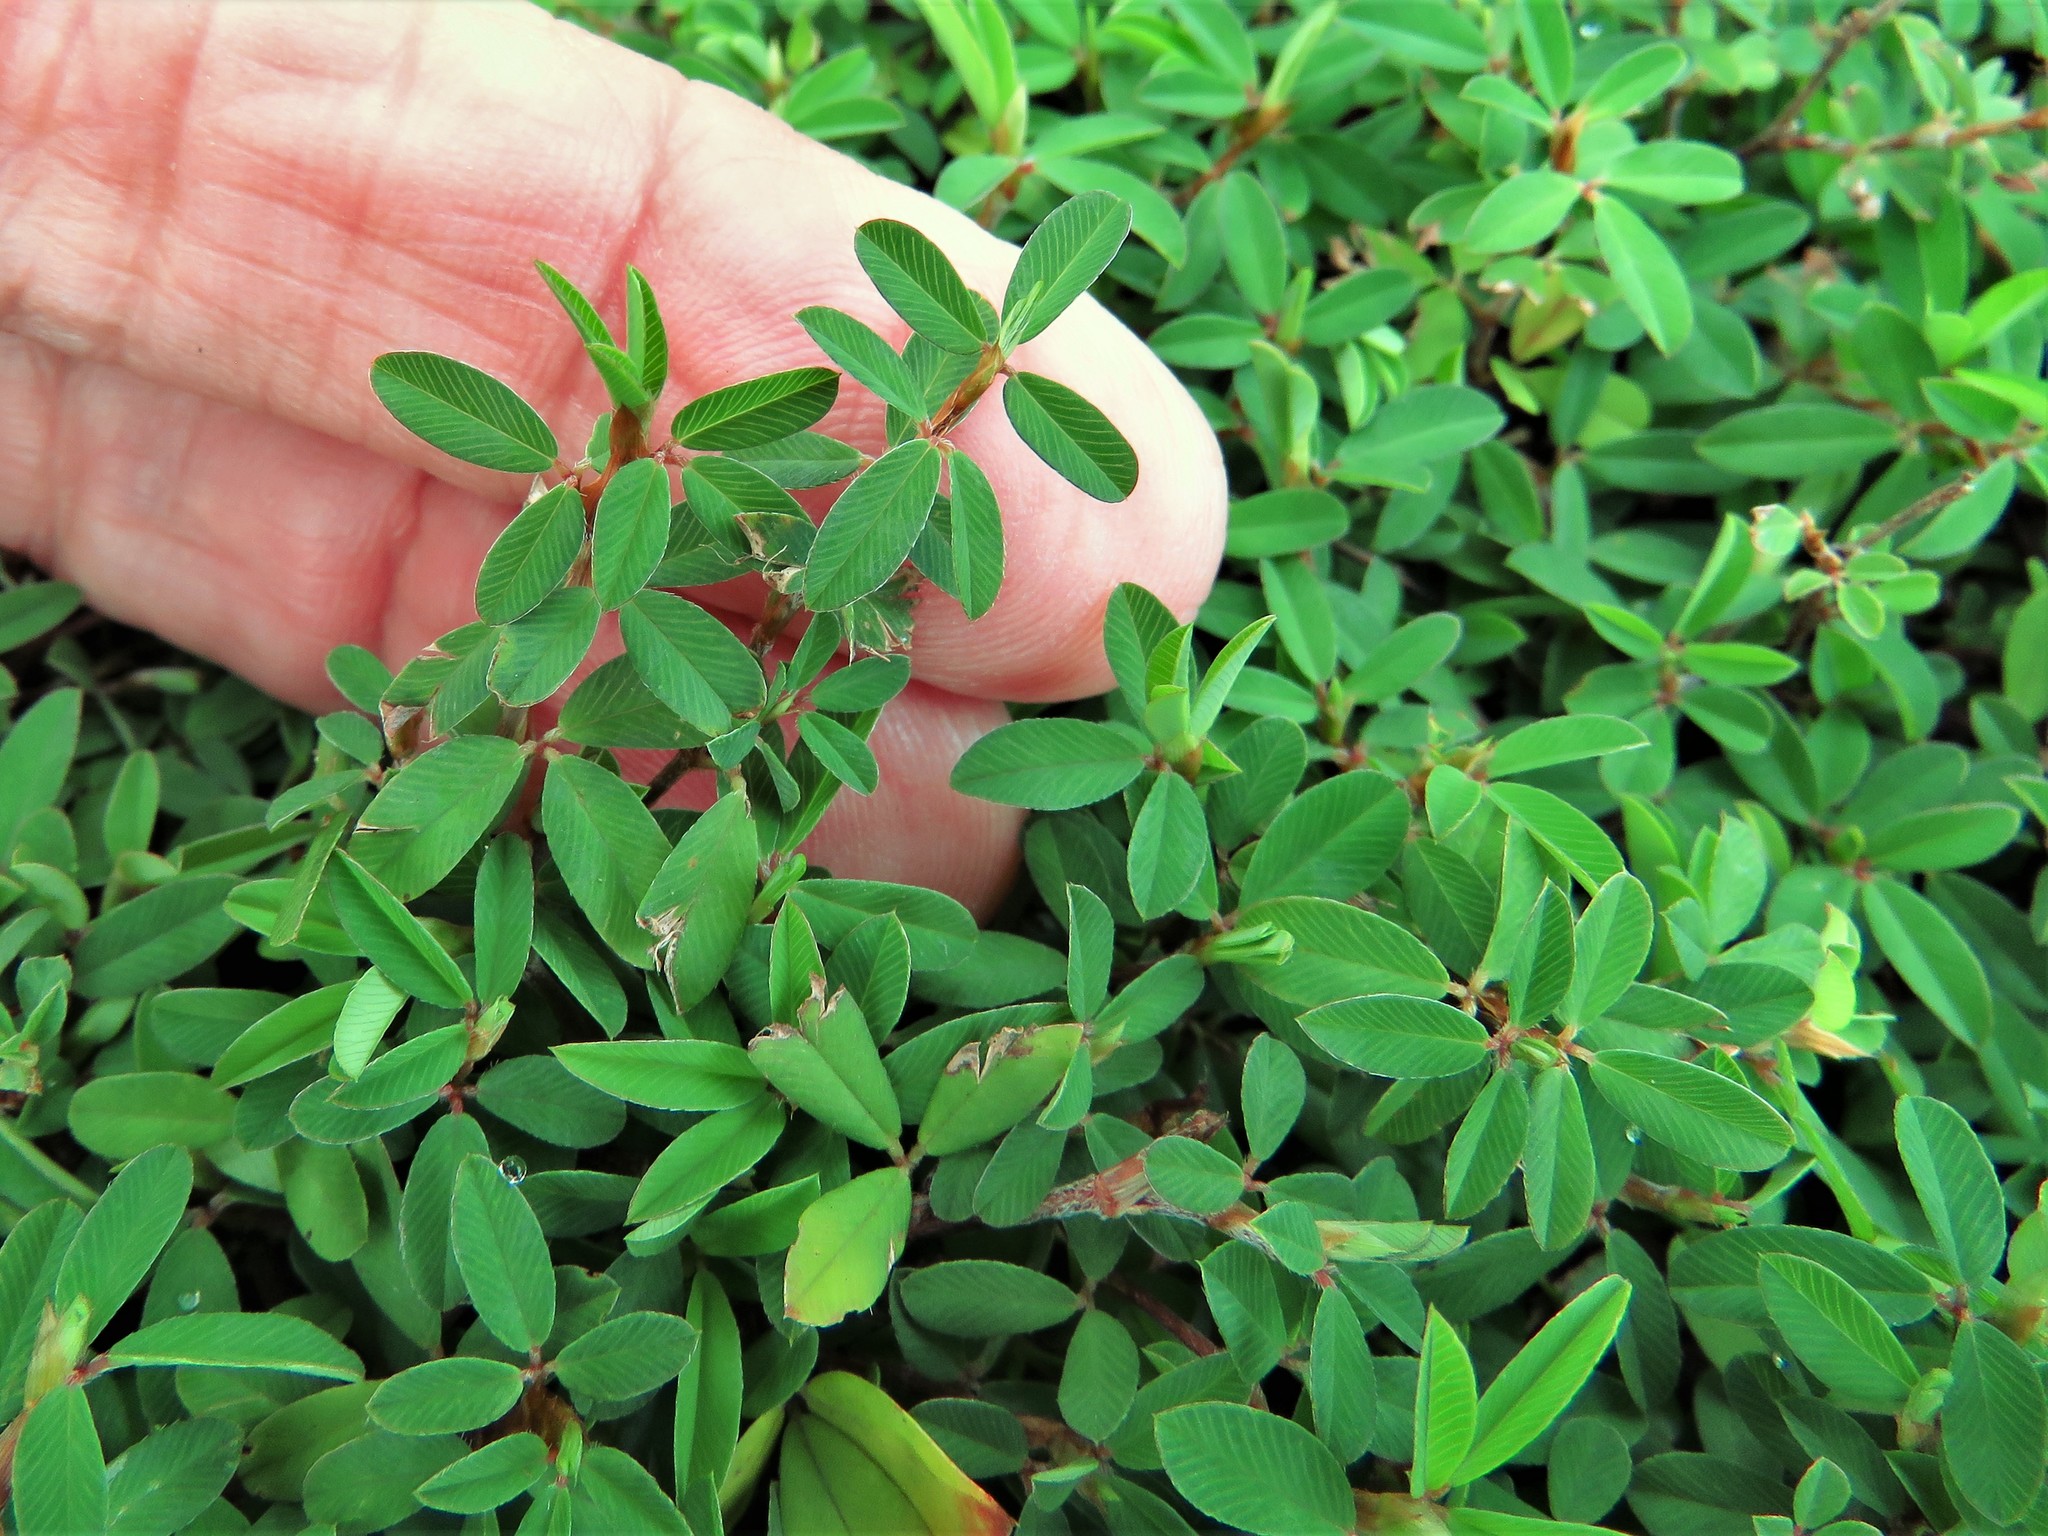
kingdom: Plantae
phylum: Tracheophyta
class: Magnoliopsida
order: Fabales
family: Fabaceae
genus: Kummerowia
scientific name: Kummerowia striata
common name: Japanese clover
